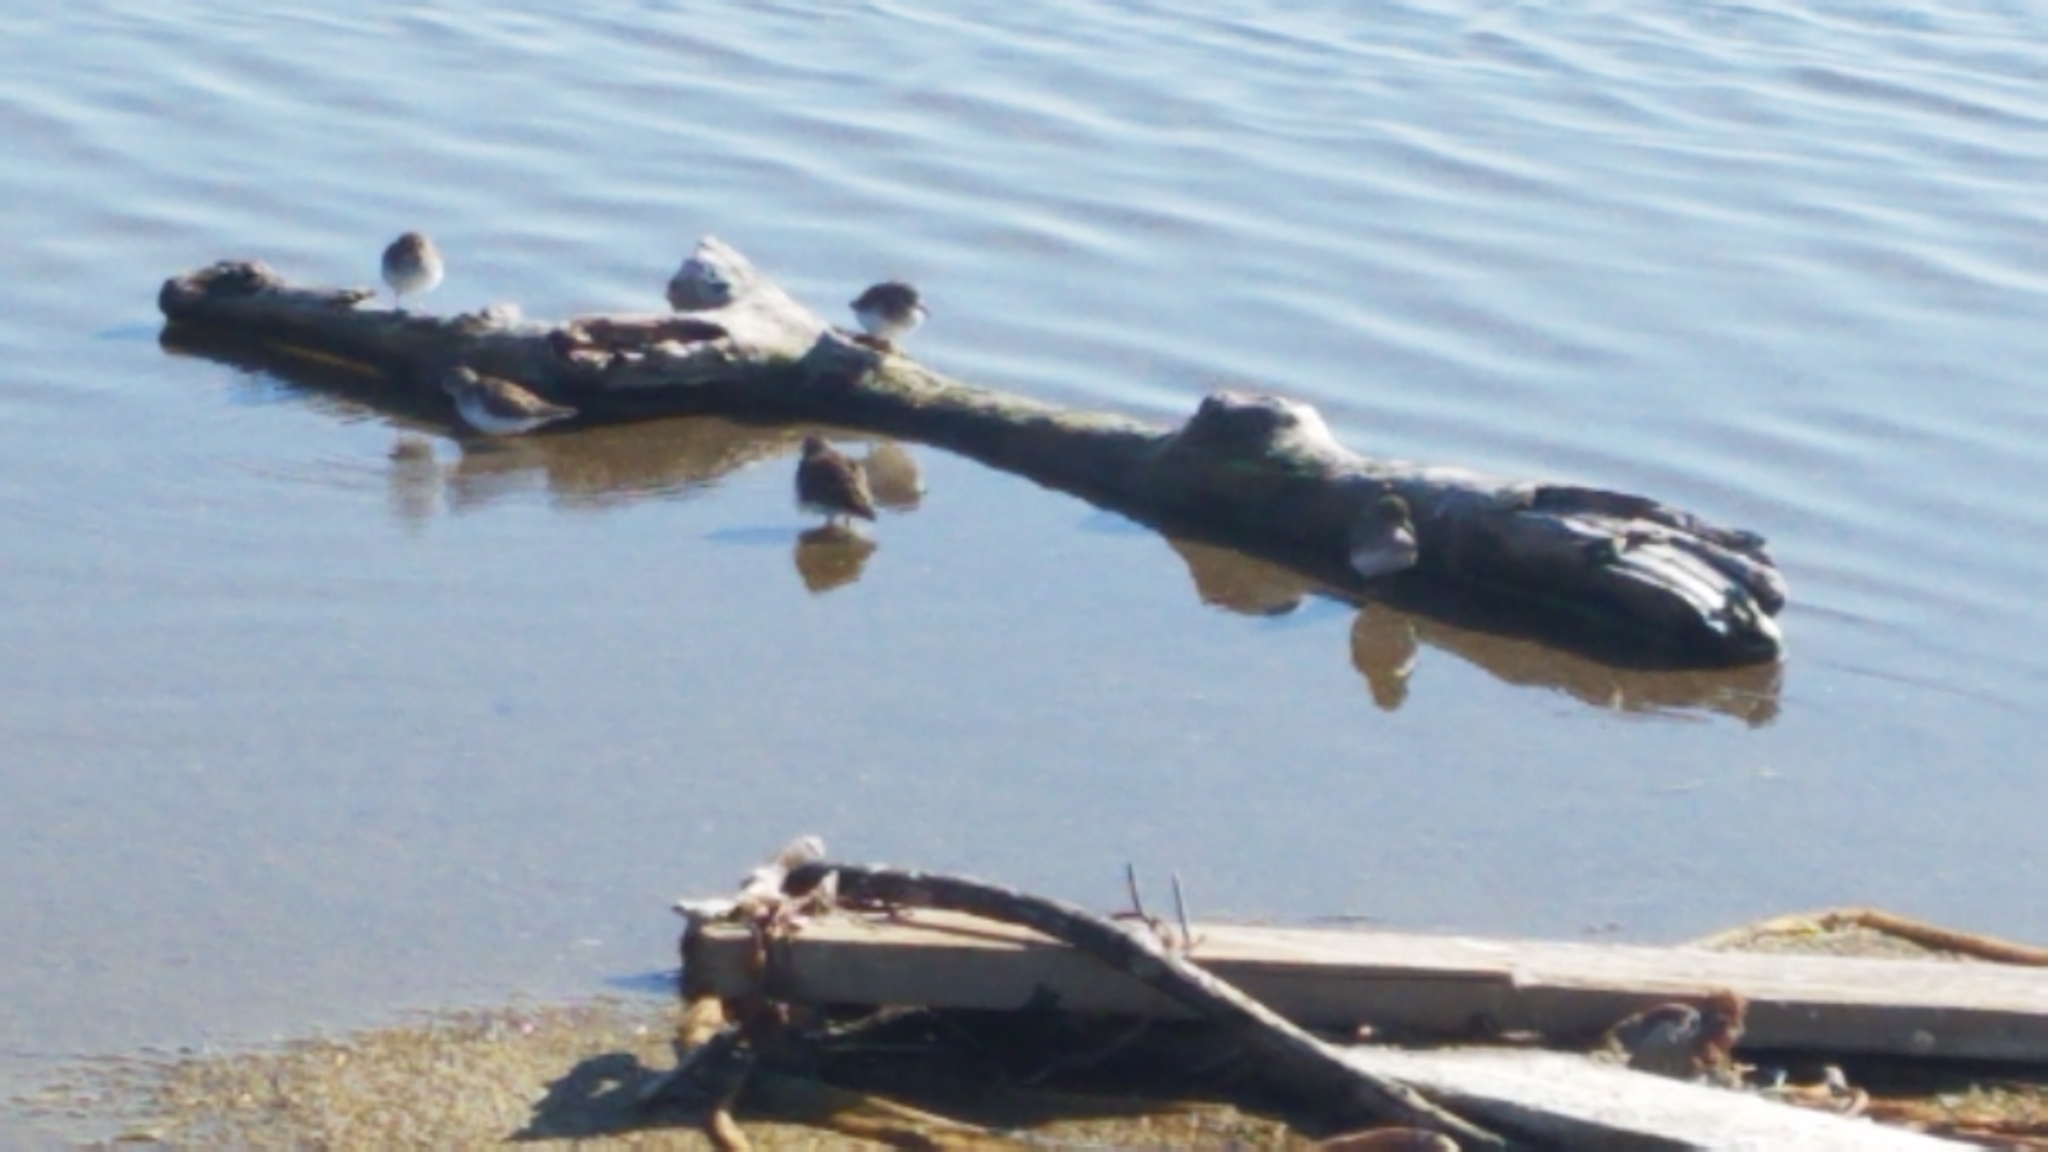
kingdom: Animalia
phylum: Chordata
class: Aves
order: Charadriiformes
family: Scolopacidae
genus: Calidris
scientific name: Calidris minutilla
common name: Least sandpiper
